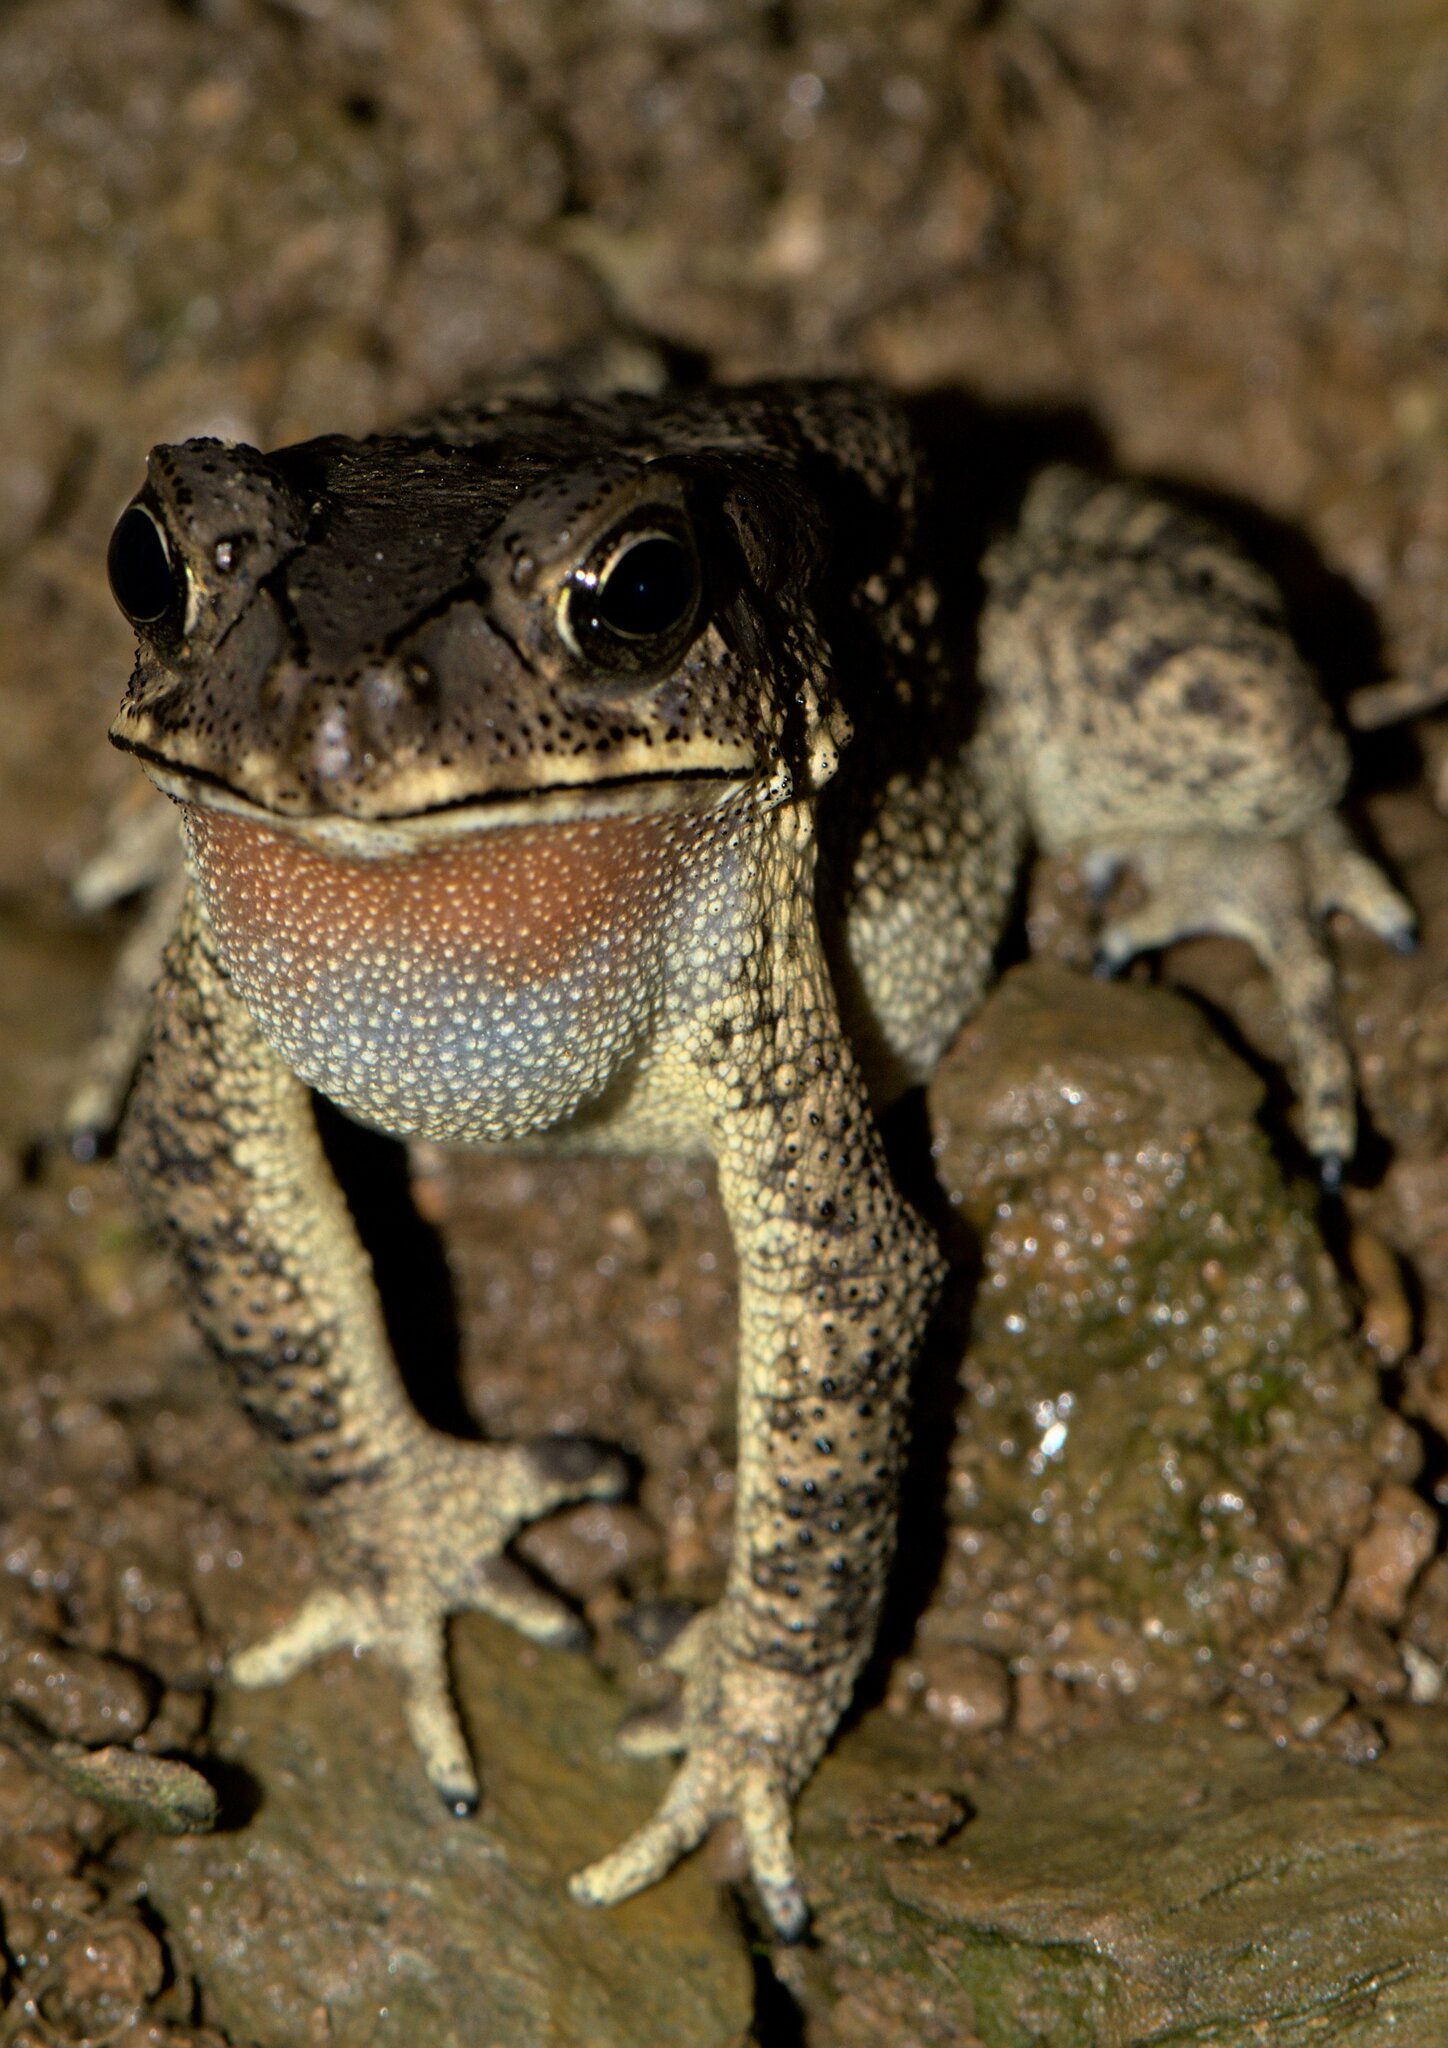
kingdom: Animalia
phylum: Chordata
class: Amphibia
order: Anura
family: Bufonidae
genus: Duttaphrynus
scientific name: Duttaphrynus melanostictus
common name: Common sunda toad
